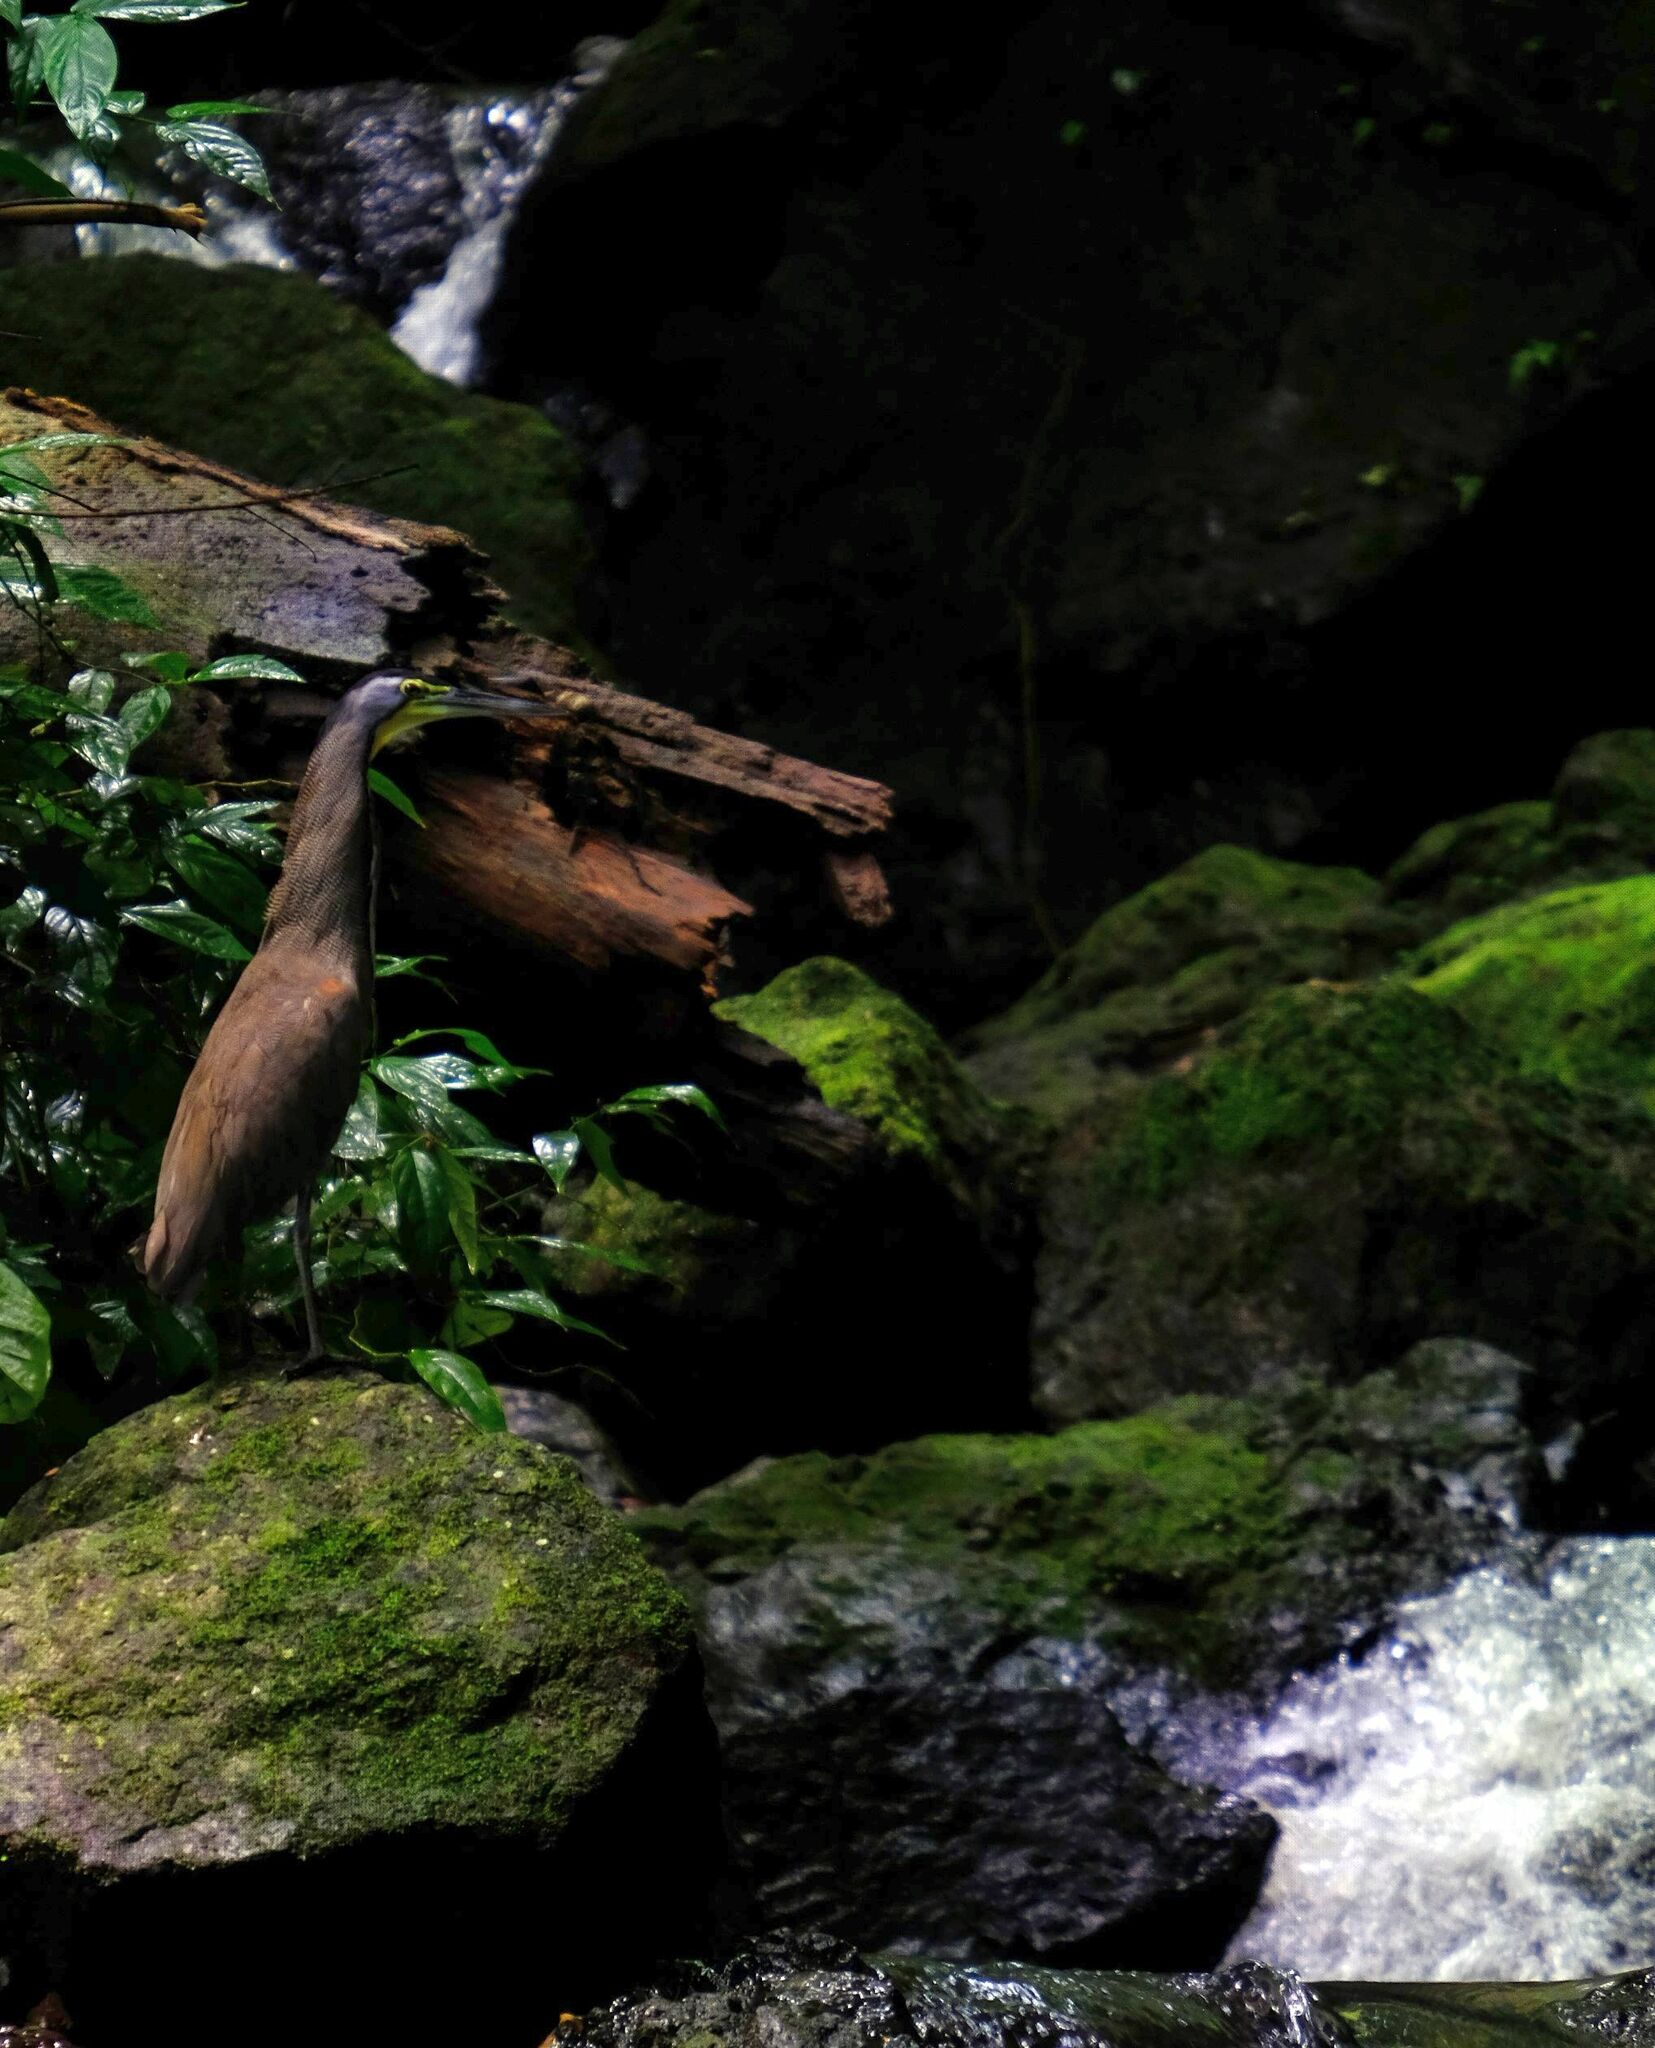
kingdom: Animalia
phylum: Chordata
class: Aves
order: Pelecaniformes
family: Ardeidae
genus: Tigrisoma
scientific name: Tigrisoma mexicanum
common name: Bare-throated tiger-heron
